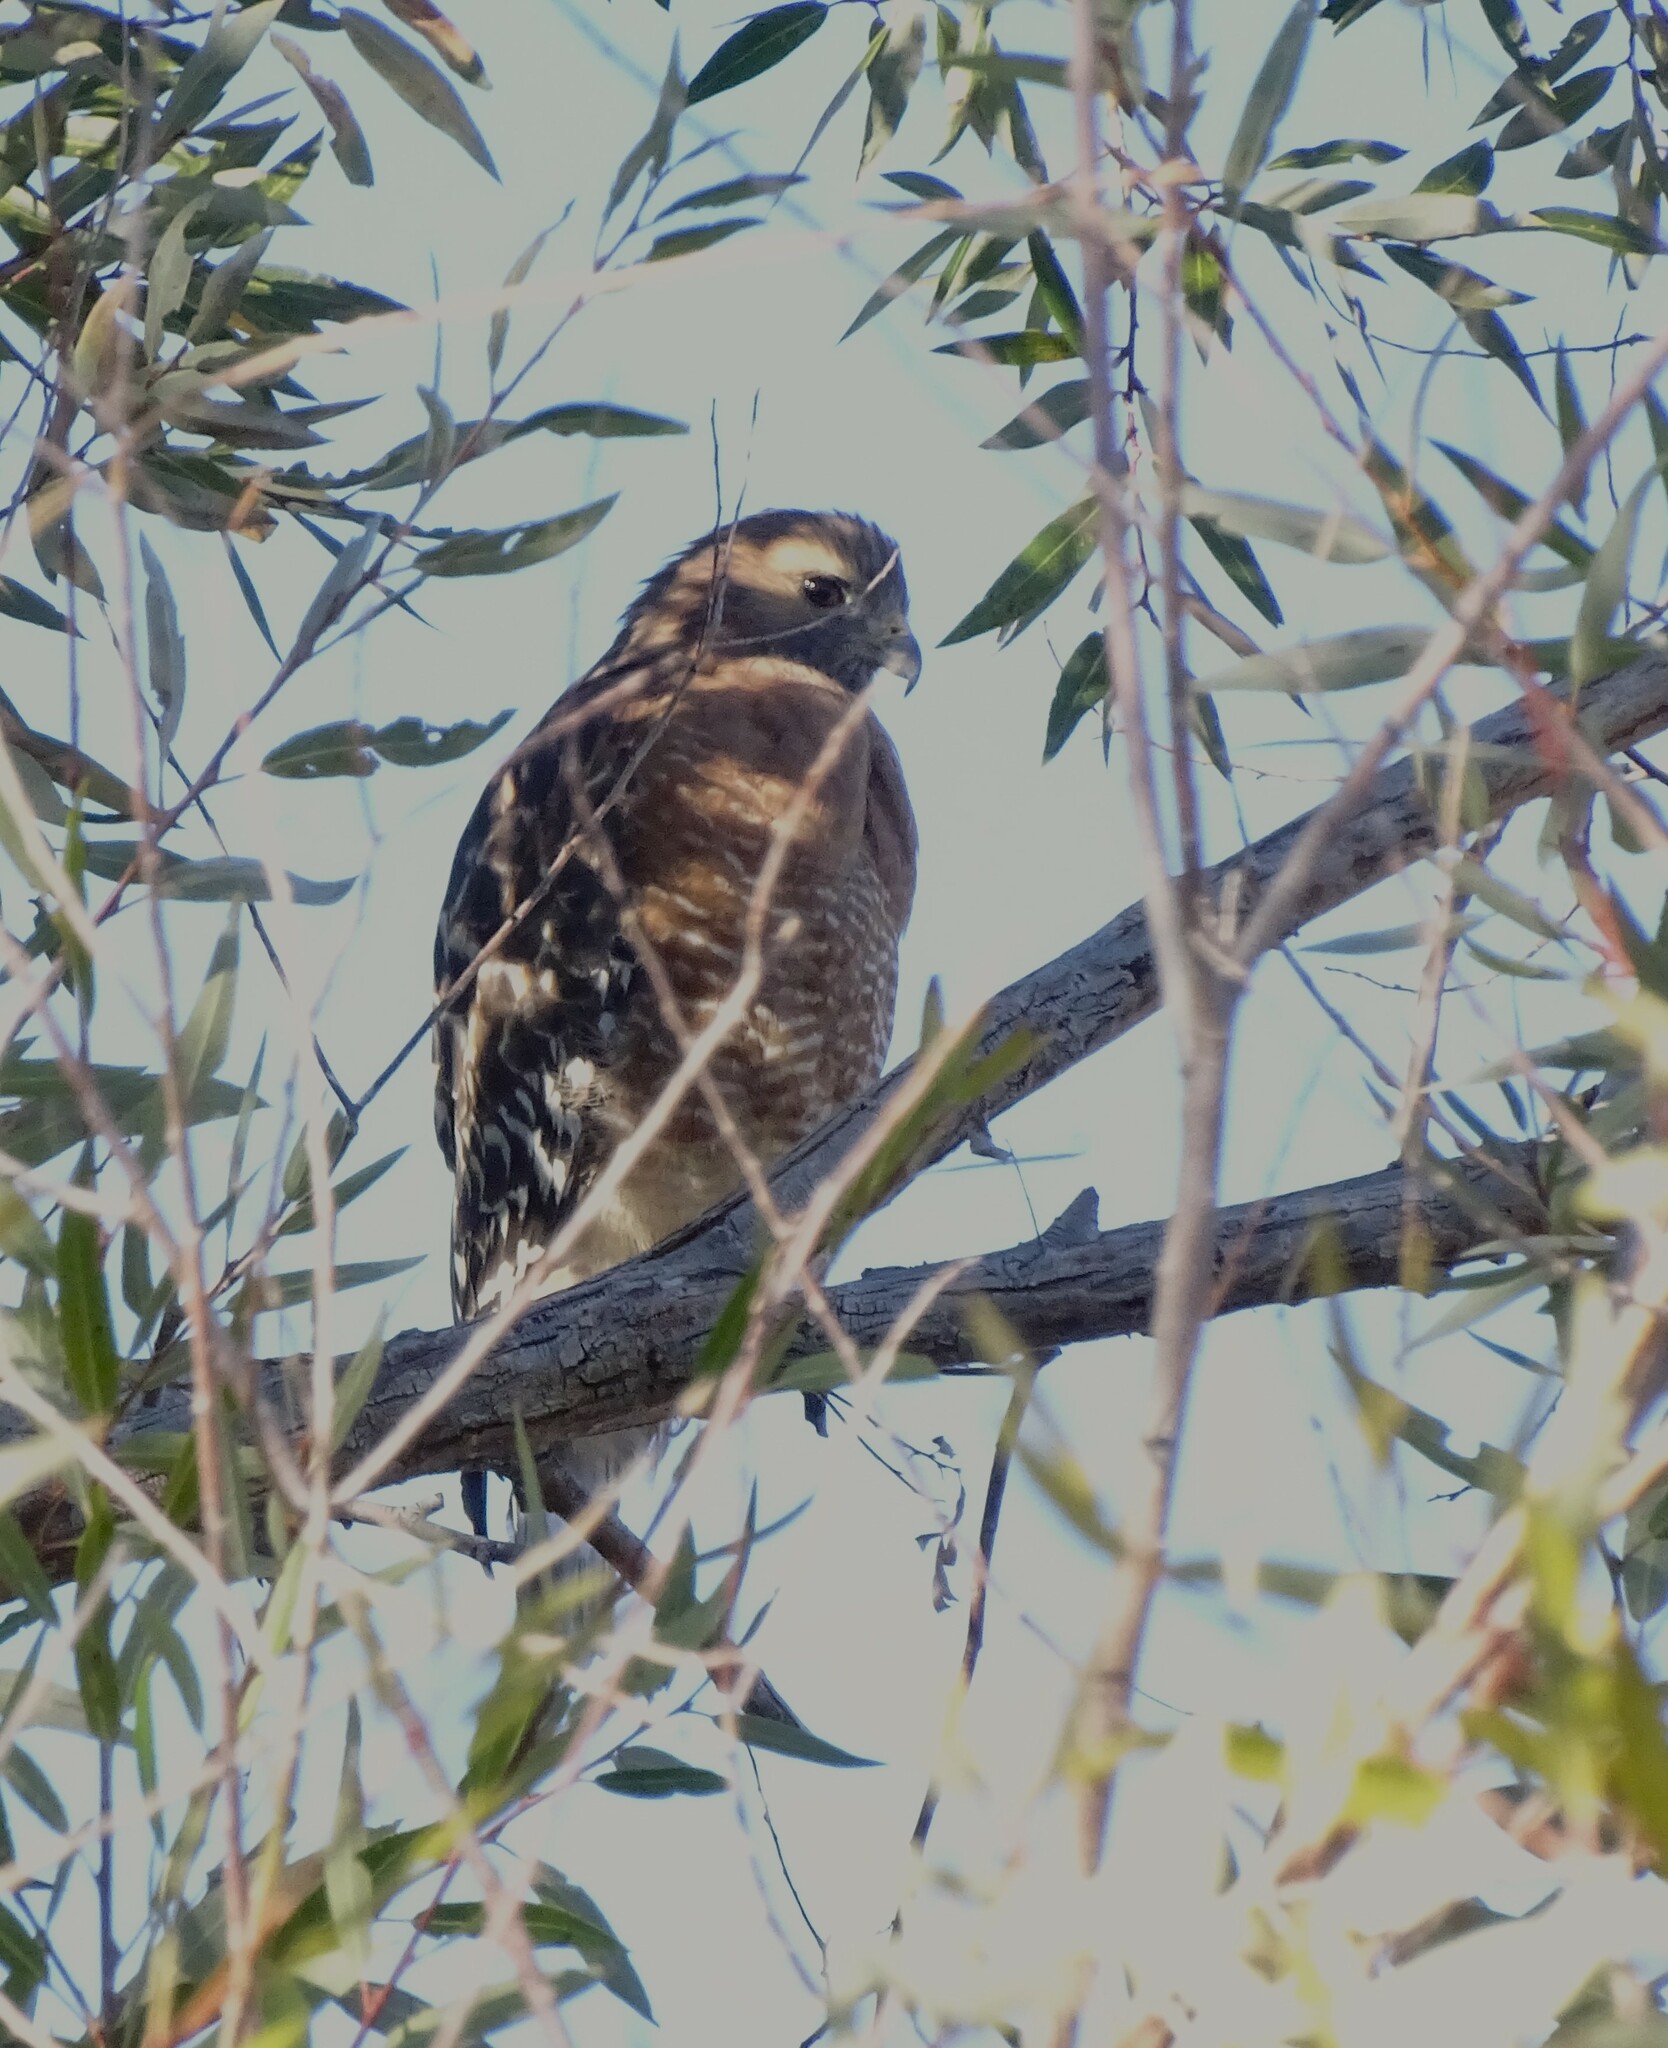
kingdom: Animalia
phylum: Chordata
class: Aves
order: Accipitriformes
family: Accipitridae
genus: Buteo
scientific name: Buteo lineatus
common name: Red-shouldered hawk
